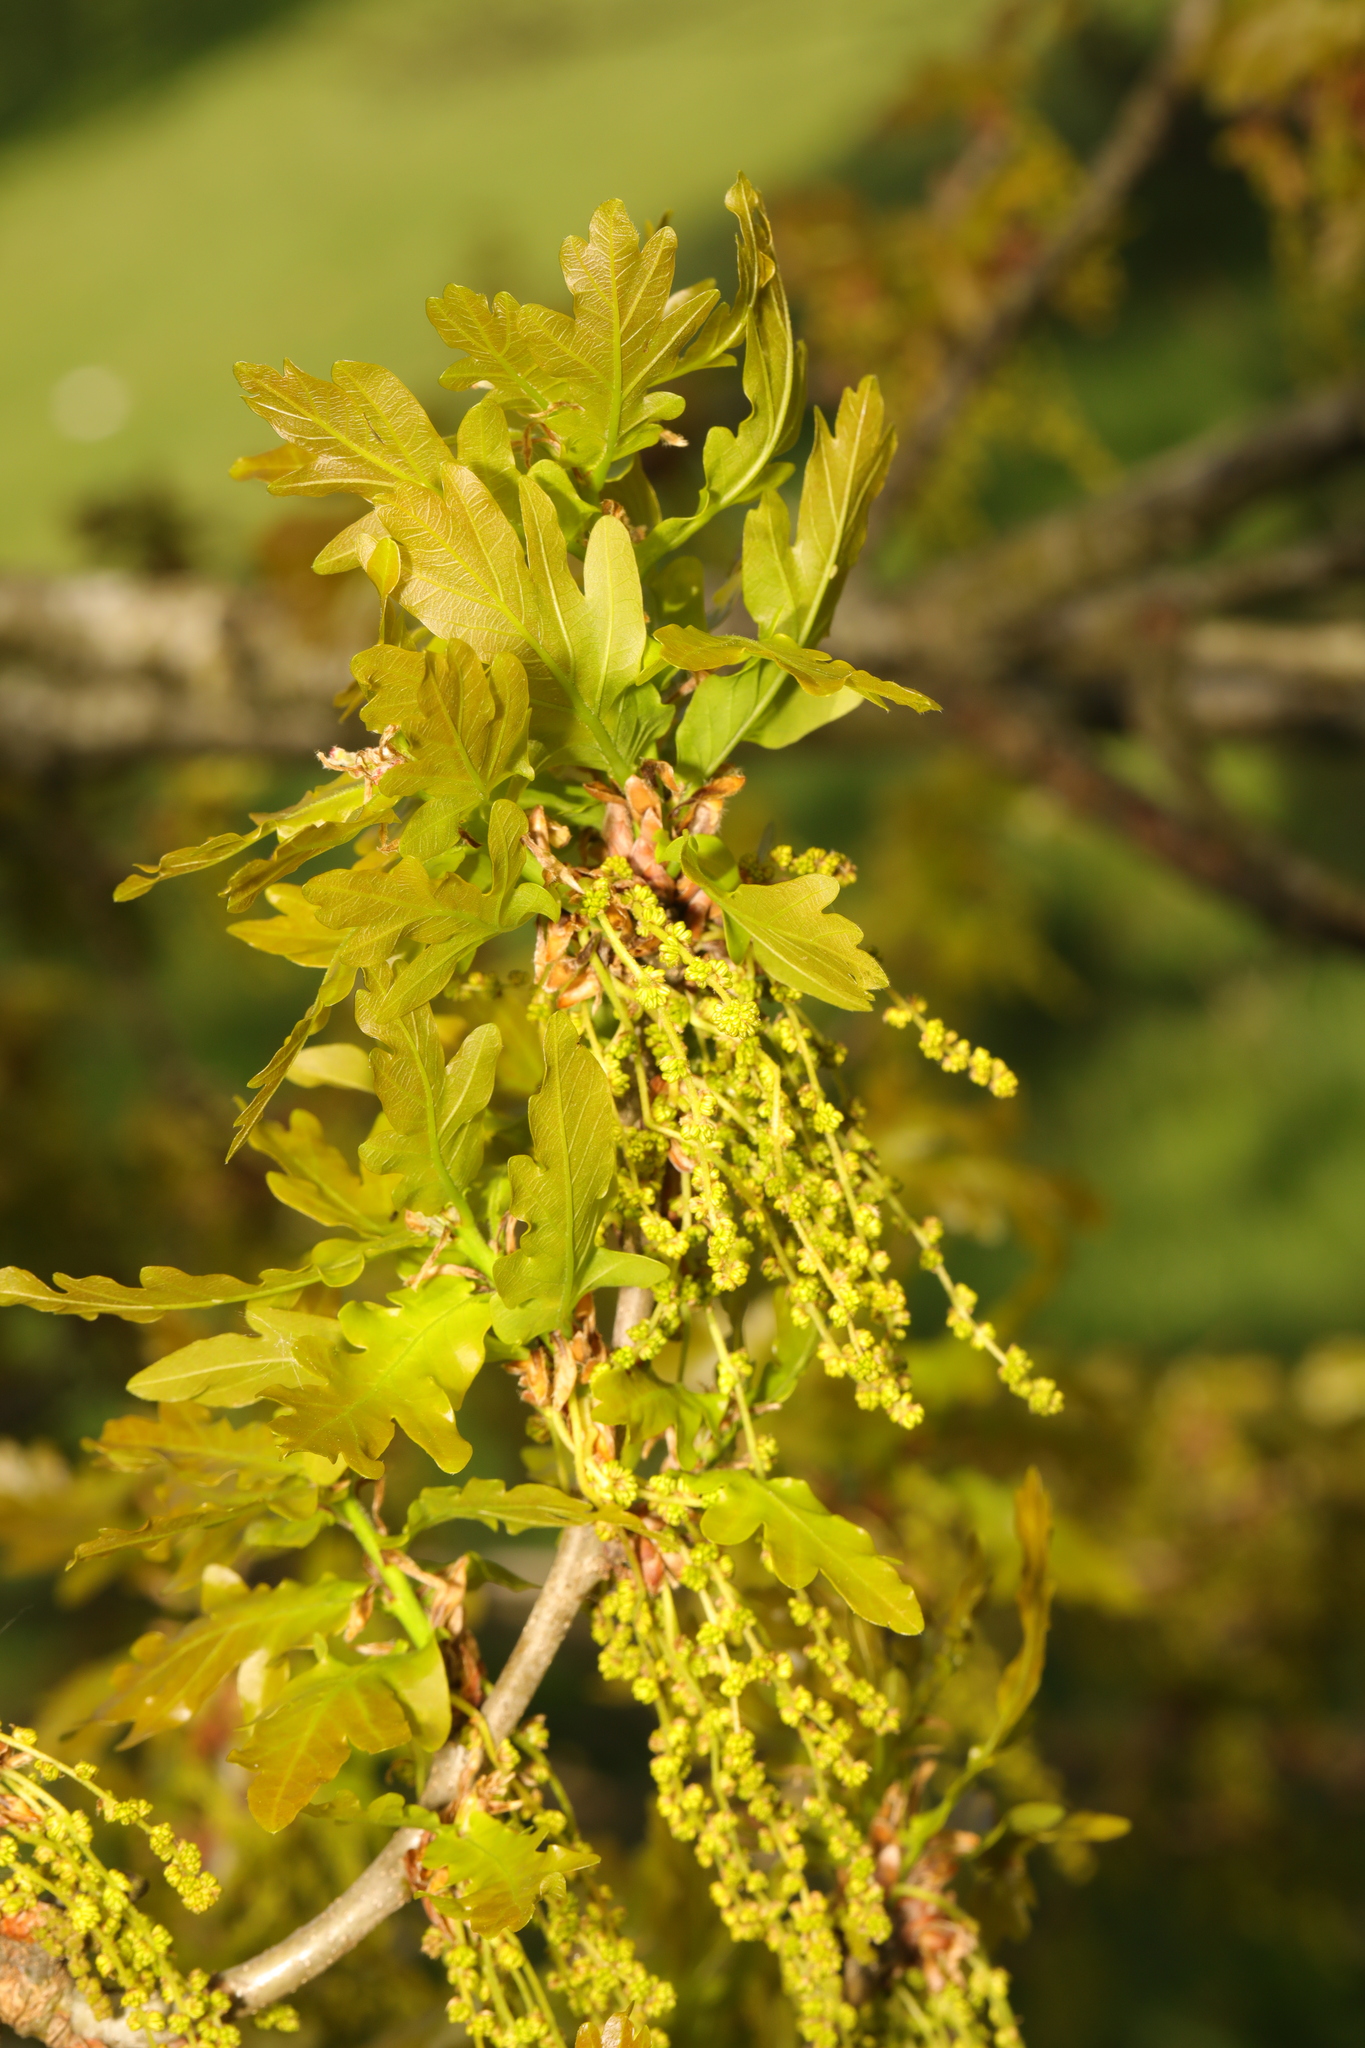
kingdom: Plantae
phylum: Tracheophyta
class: Magnoliopsida
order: Fagales
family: Fagaceae
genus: Quercus
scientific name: Quercus robur
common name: Pedunculate oak
